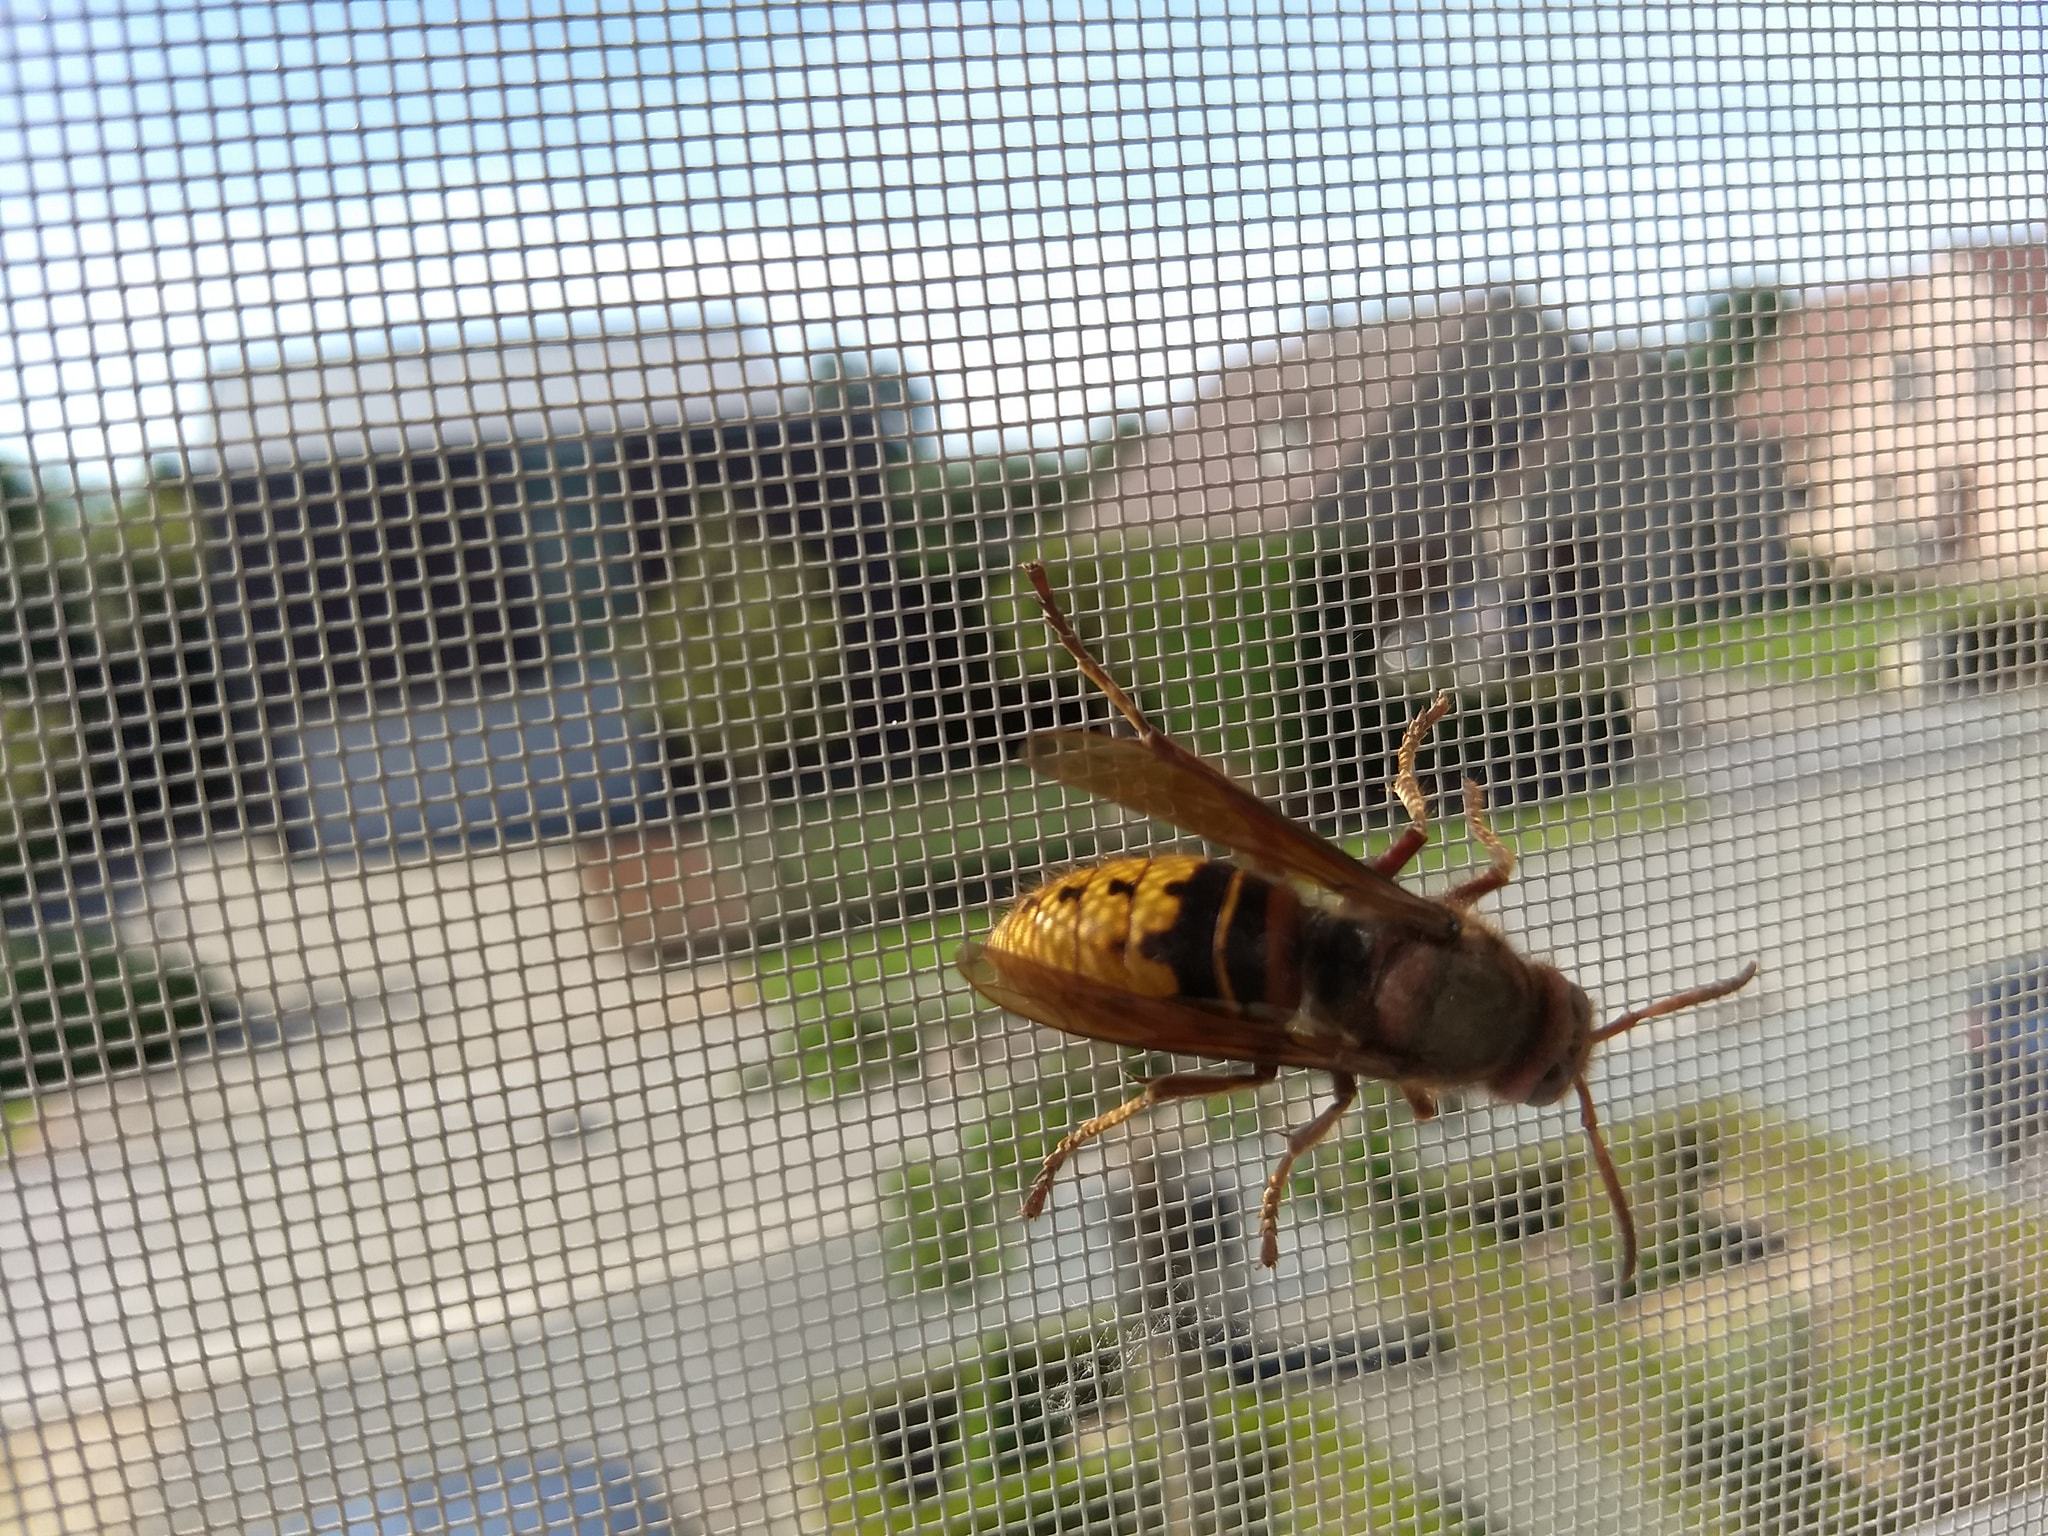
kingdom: Animalia
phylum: Arthropoda
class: Insecta
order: Hymenoptera
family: Vespidae
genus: Vespa
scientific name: Vespa crabro
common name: Hornet
